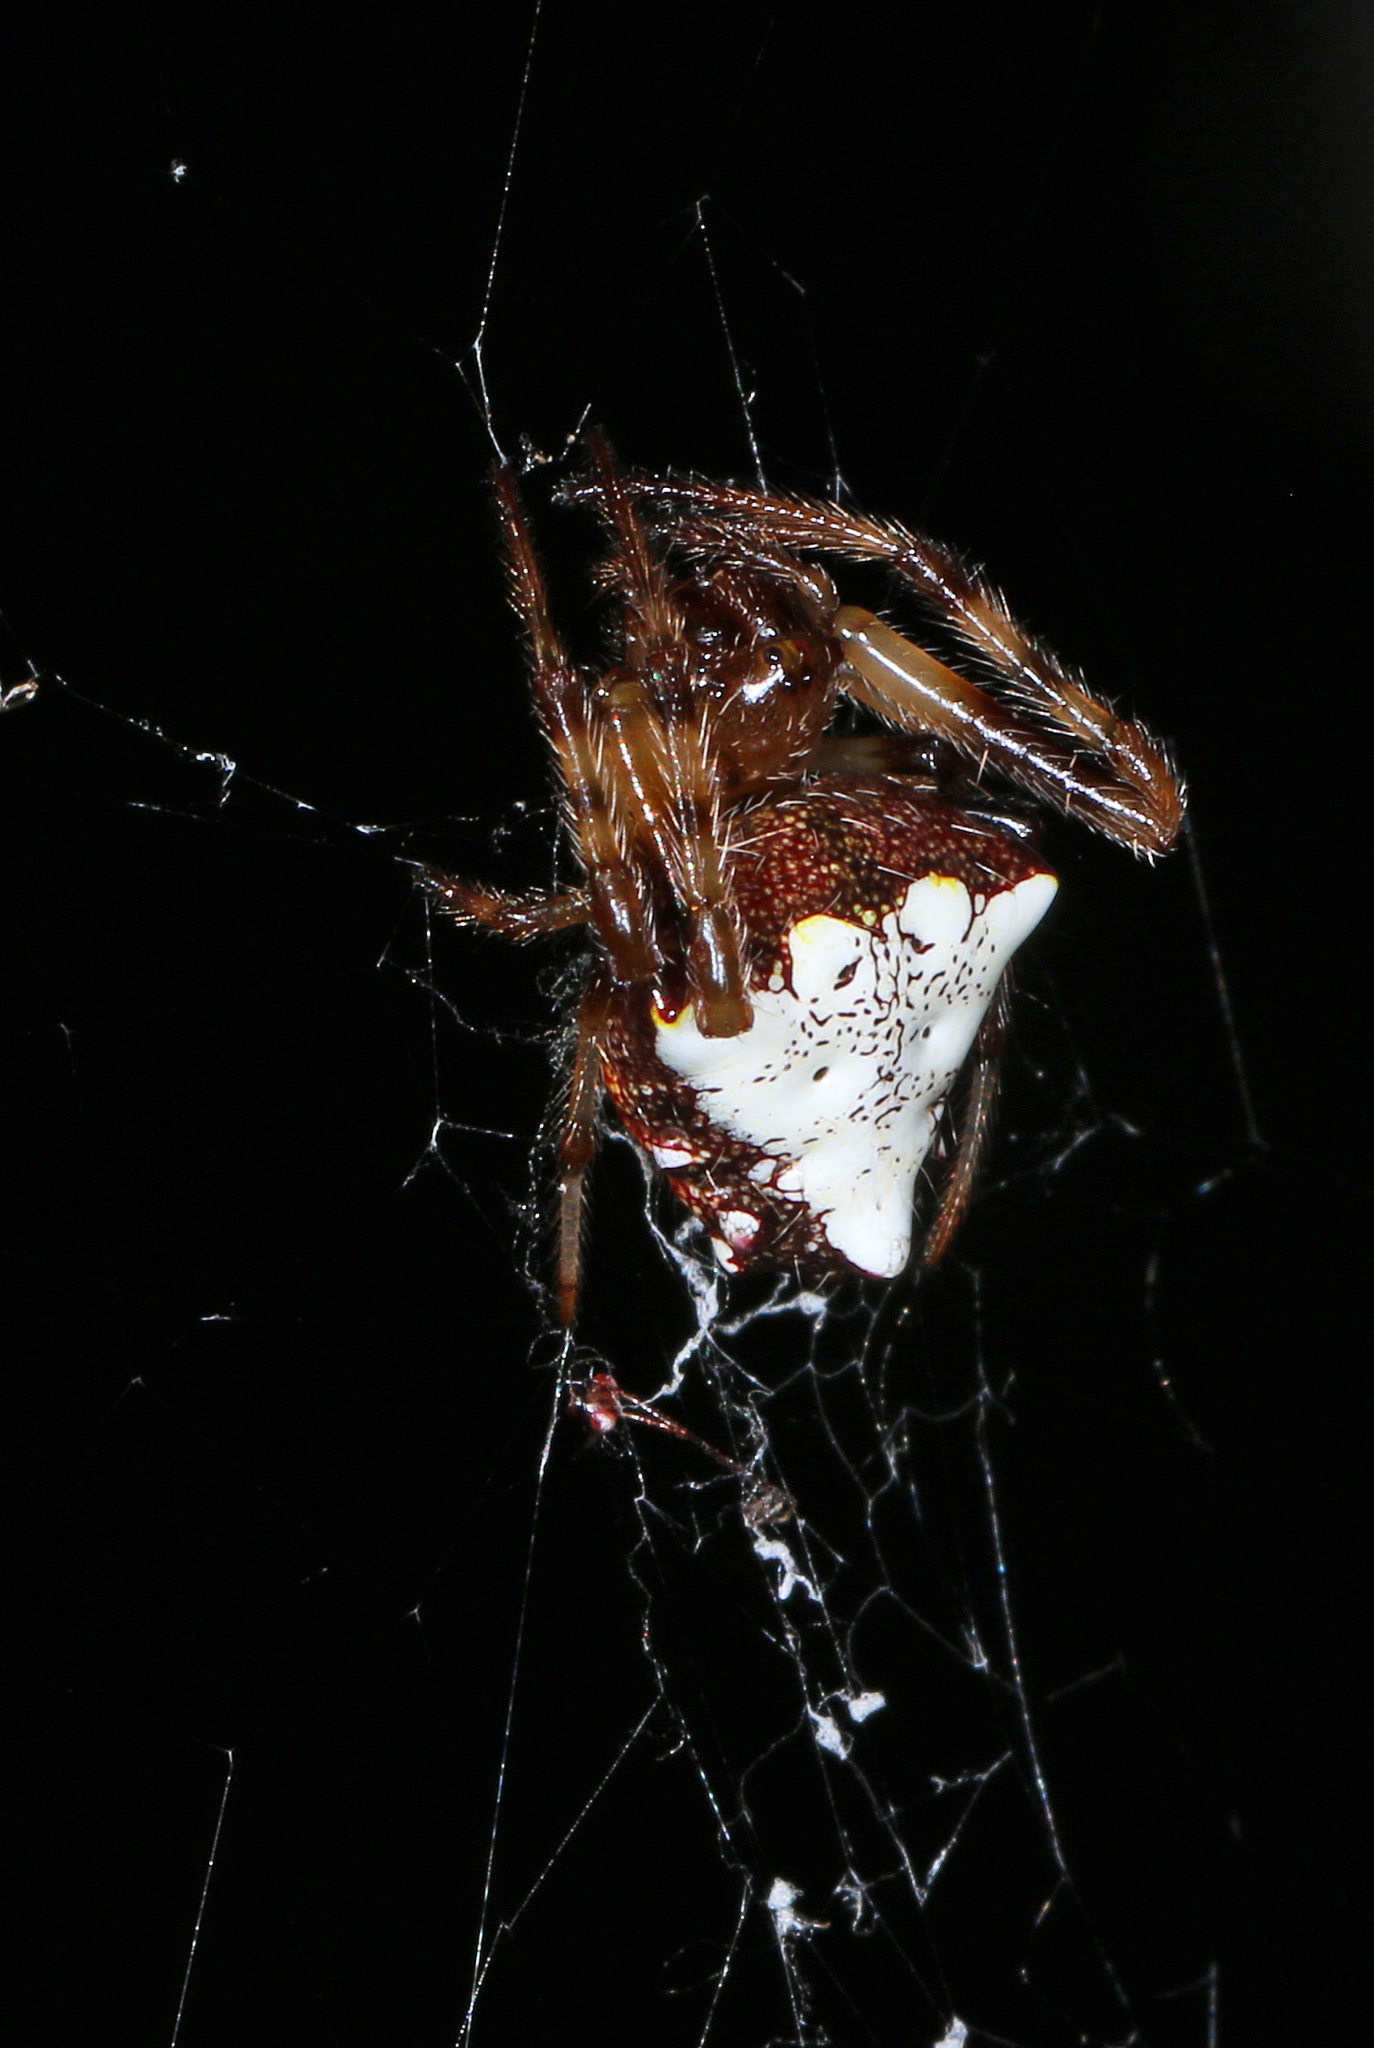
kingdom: Animalia
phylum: Arthropoda
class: Arachnida
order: Araneae
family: Araneidae
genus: Verrucosa
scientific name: Verrucosa arenata
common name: Orb weavers
